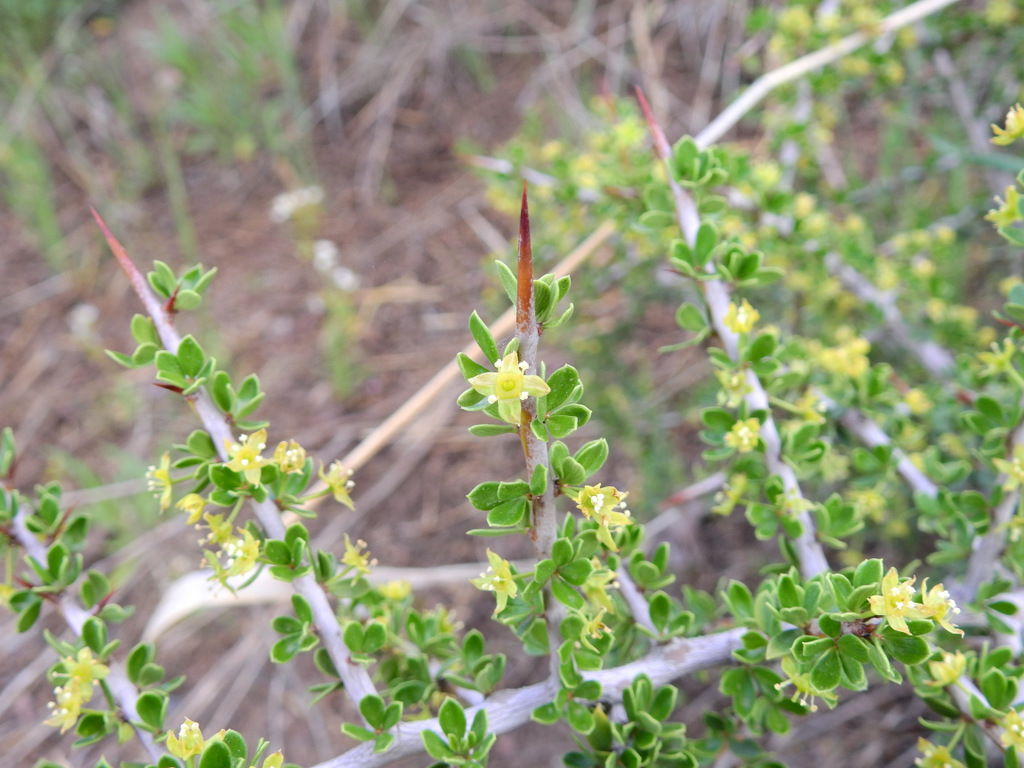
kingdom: Plantae
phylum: Tracheophyta
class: Magnoliopsida
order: Rosales
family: Rhamnaceae
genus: Condalia
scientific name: Condalia microphylla
